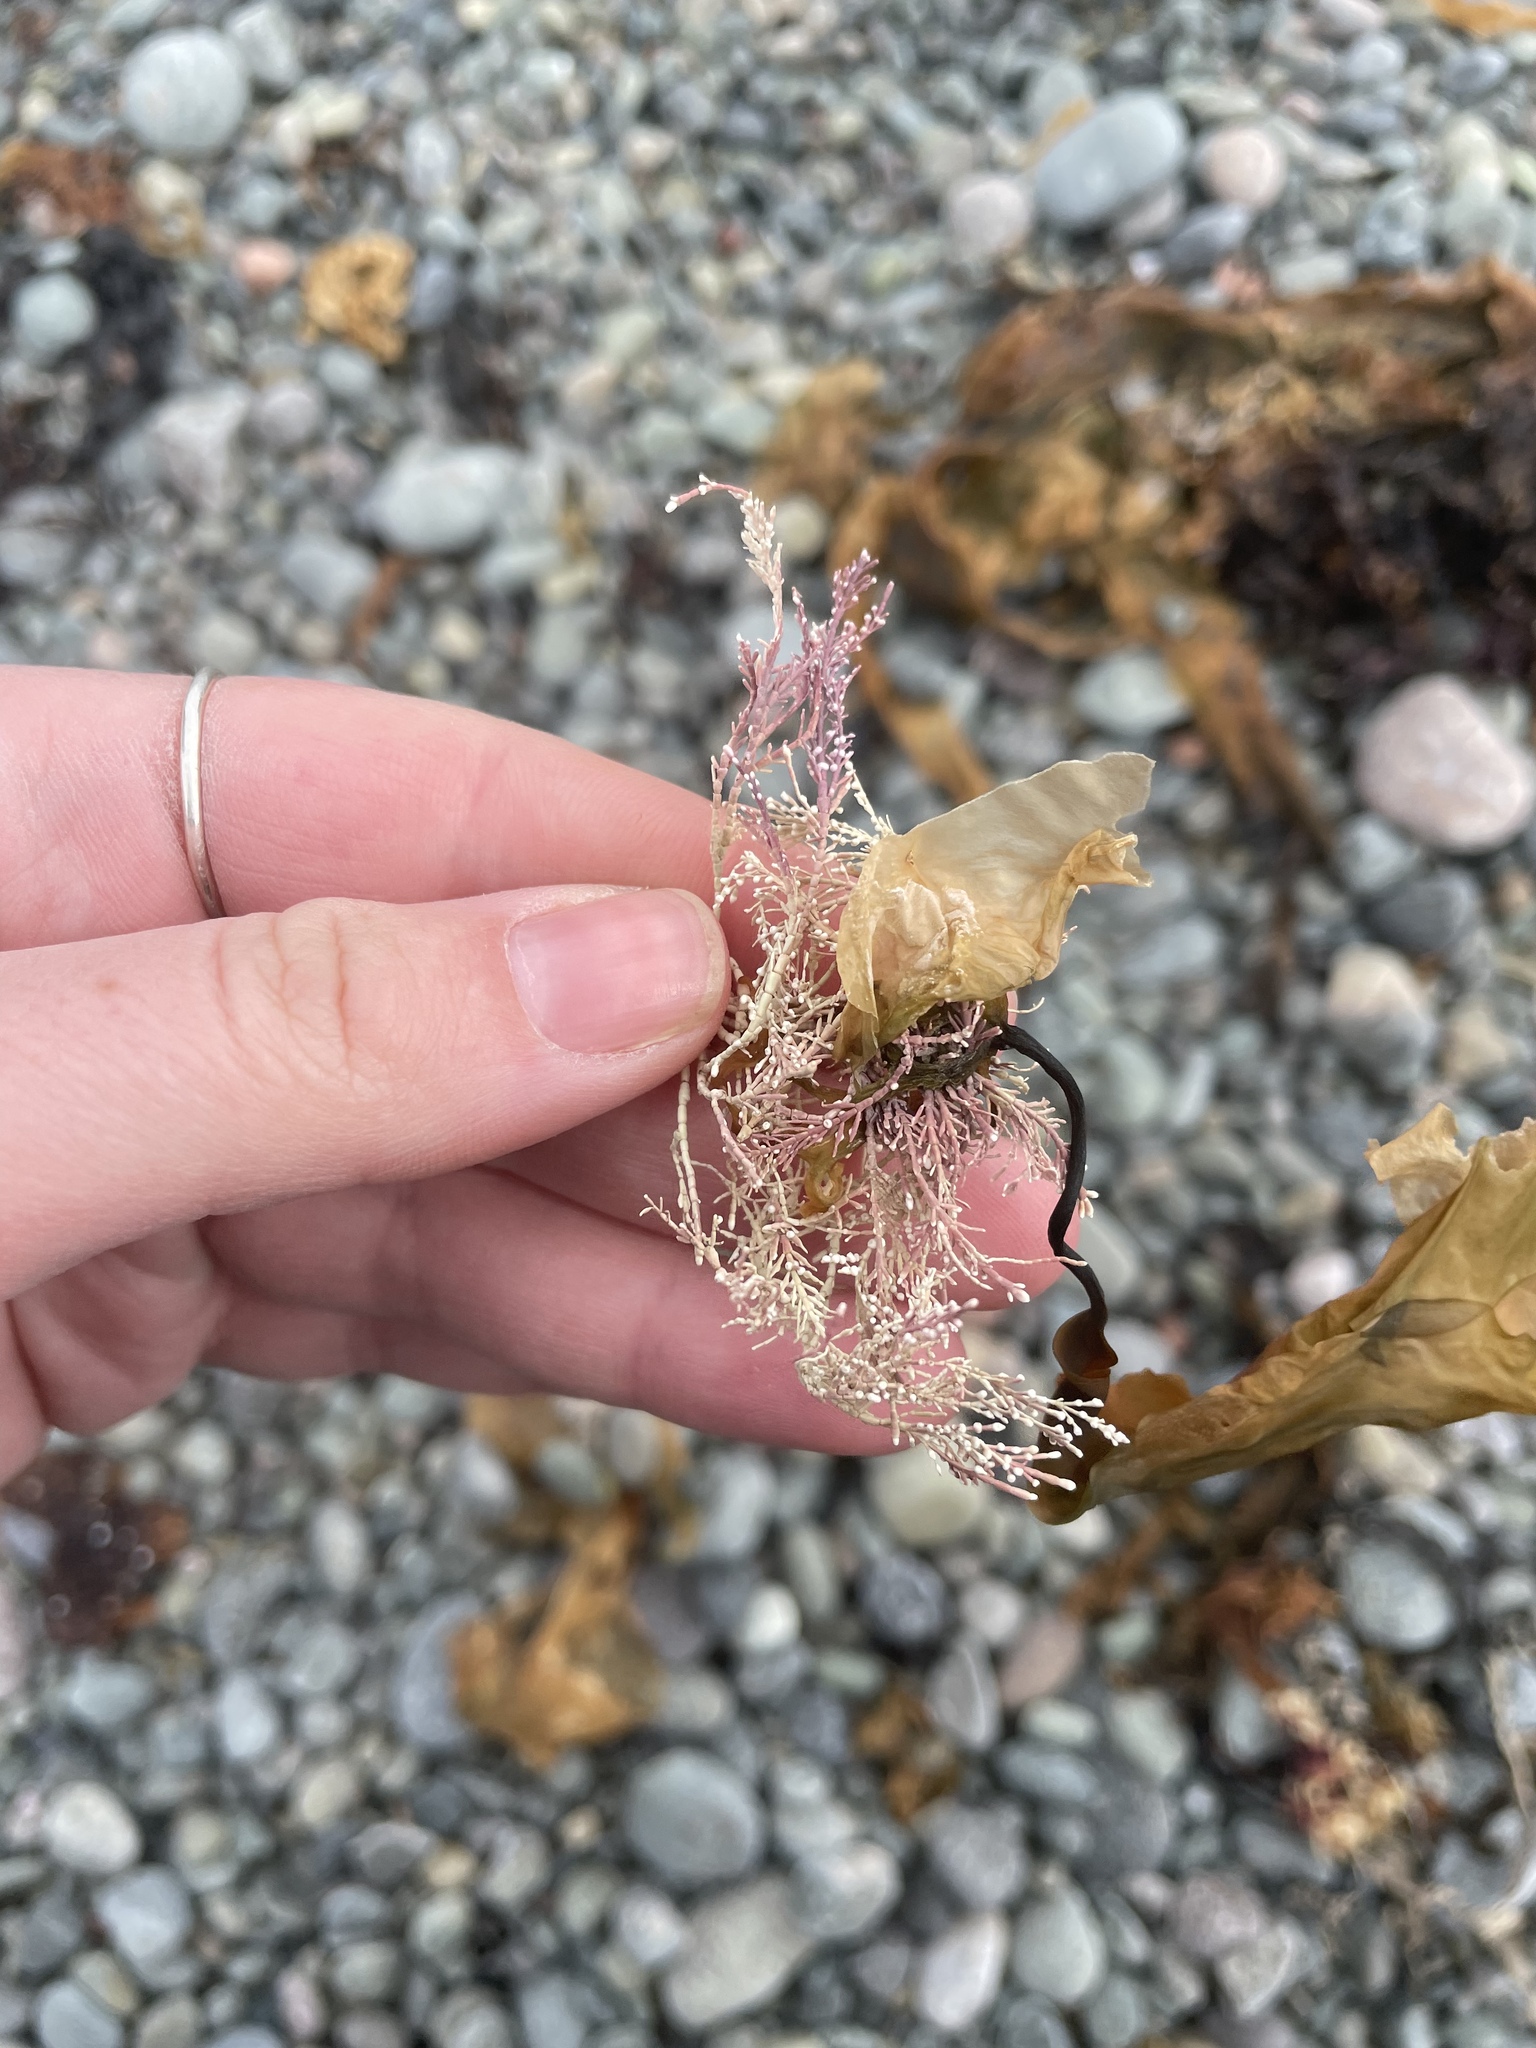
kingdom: Plantae
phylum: Rhodophyta
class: Florideophyceae
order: Corallinales
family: Corallinaceae
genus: Corallina
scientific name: Corallina officinalis
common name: Coral weed
